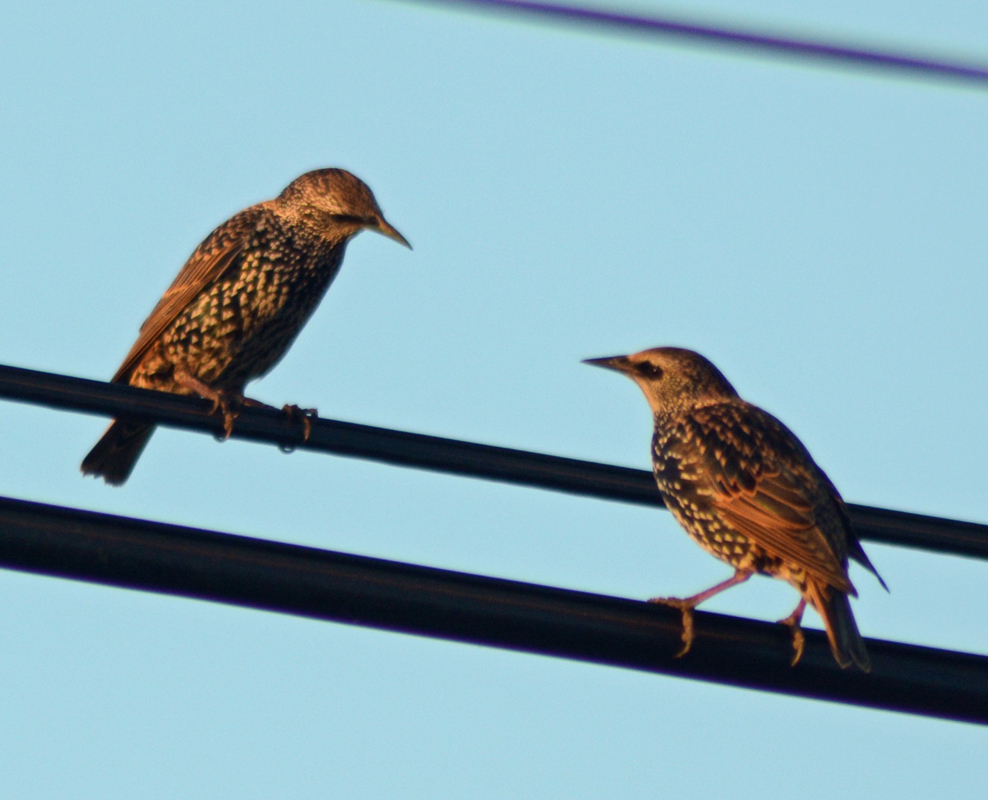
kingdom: Animalia
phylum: Chordata
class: Aves
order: Passeriformes
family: Sturnidae
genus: Sturnus
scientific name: Sturnus vulgaris
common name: Common starling
